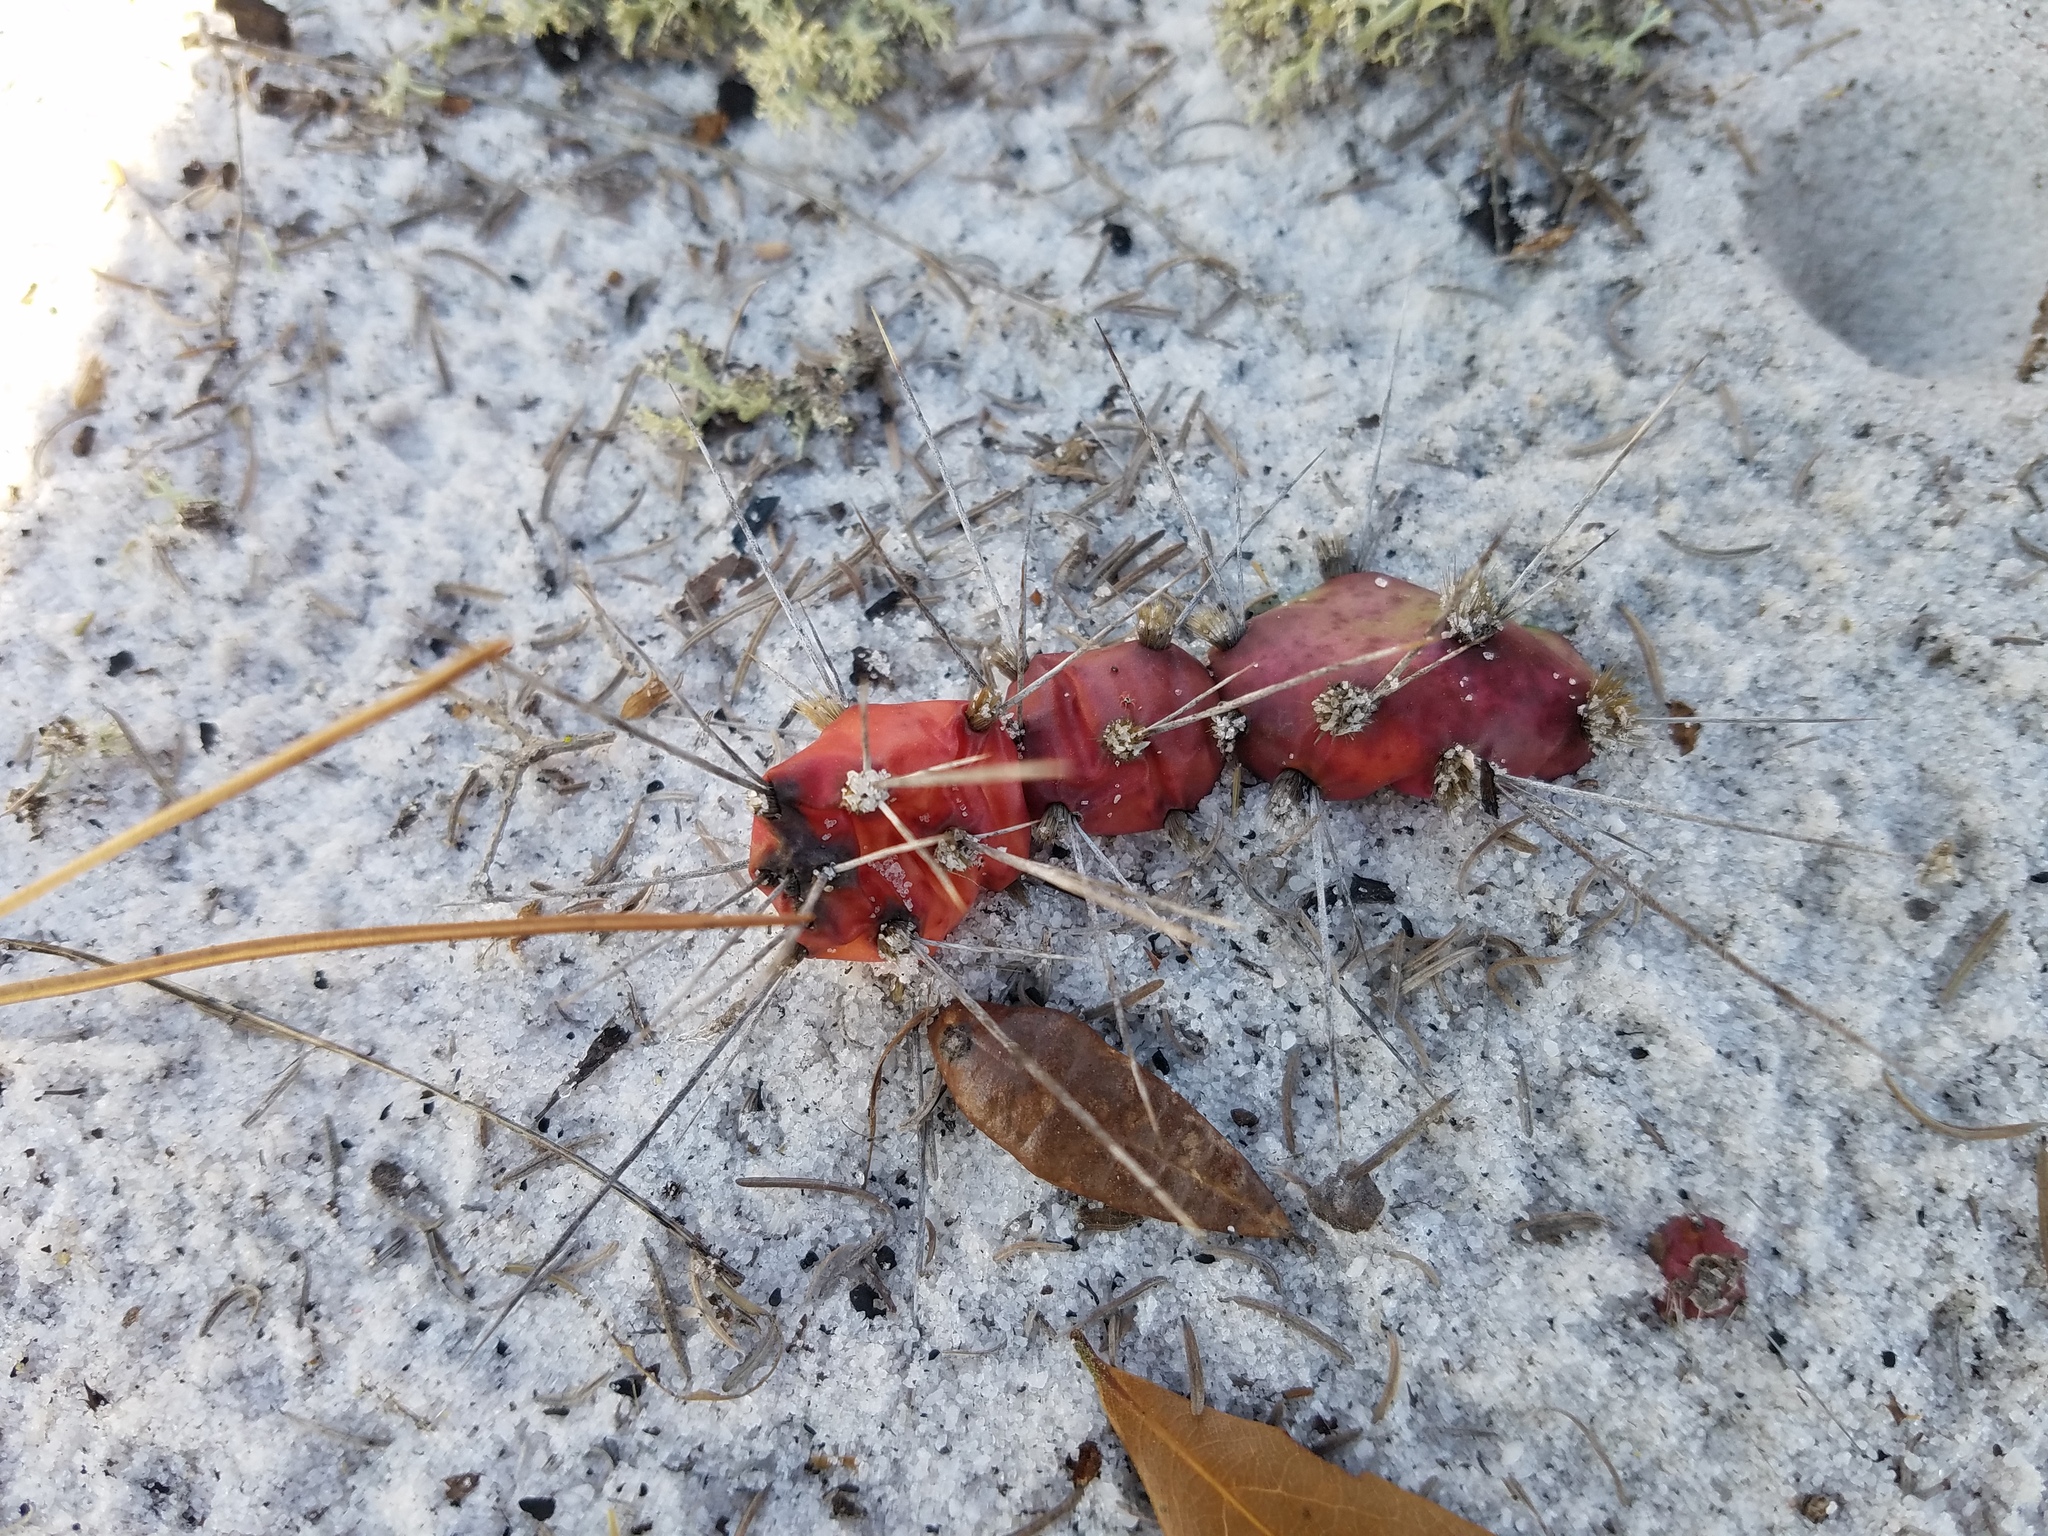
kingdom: Plantae
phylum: Tracheophyta
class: Magnoliopsida
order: Caryophyllales
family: Cactaceae
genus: Opuntia
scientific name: Opuntia drummondii
